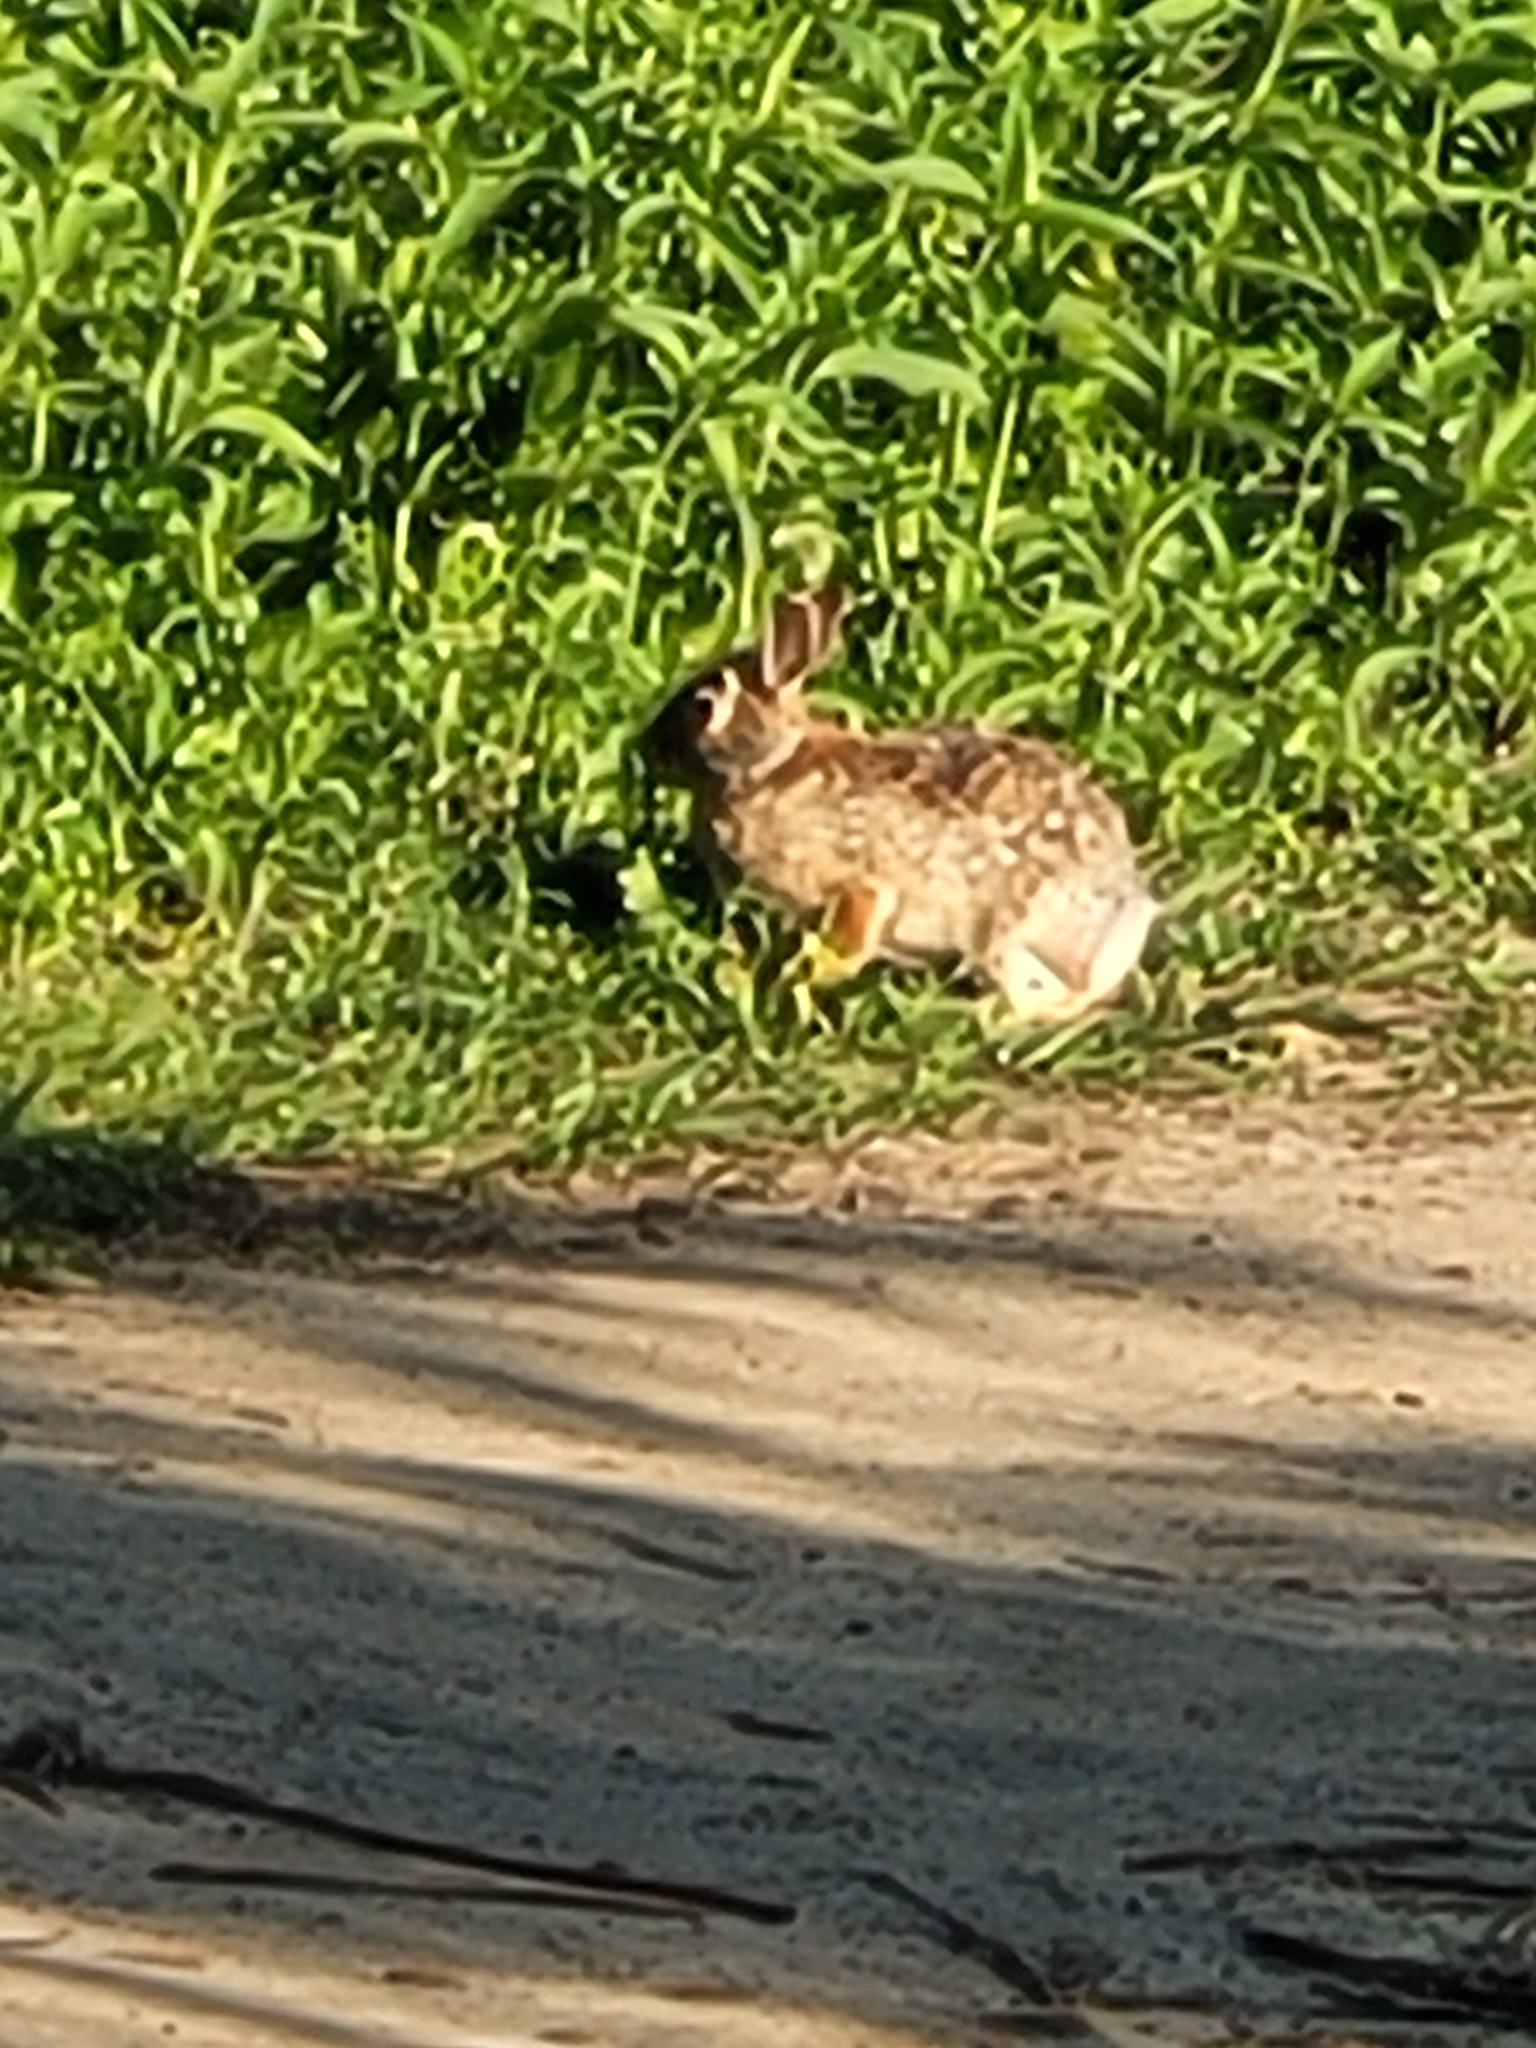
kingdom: Animalia
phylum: Chordata
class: Mammalia
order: Lagomorpha
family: Leporidae
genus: Sylvilagus
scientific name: Sylvilagus floridanus
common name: Eastern cottontail
